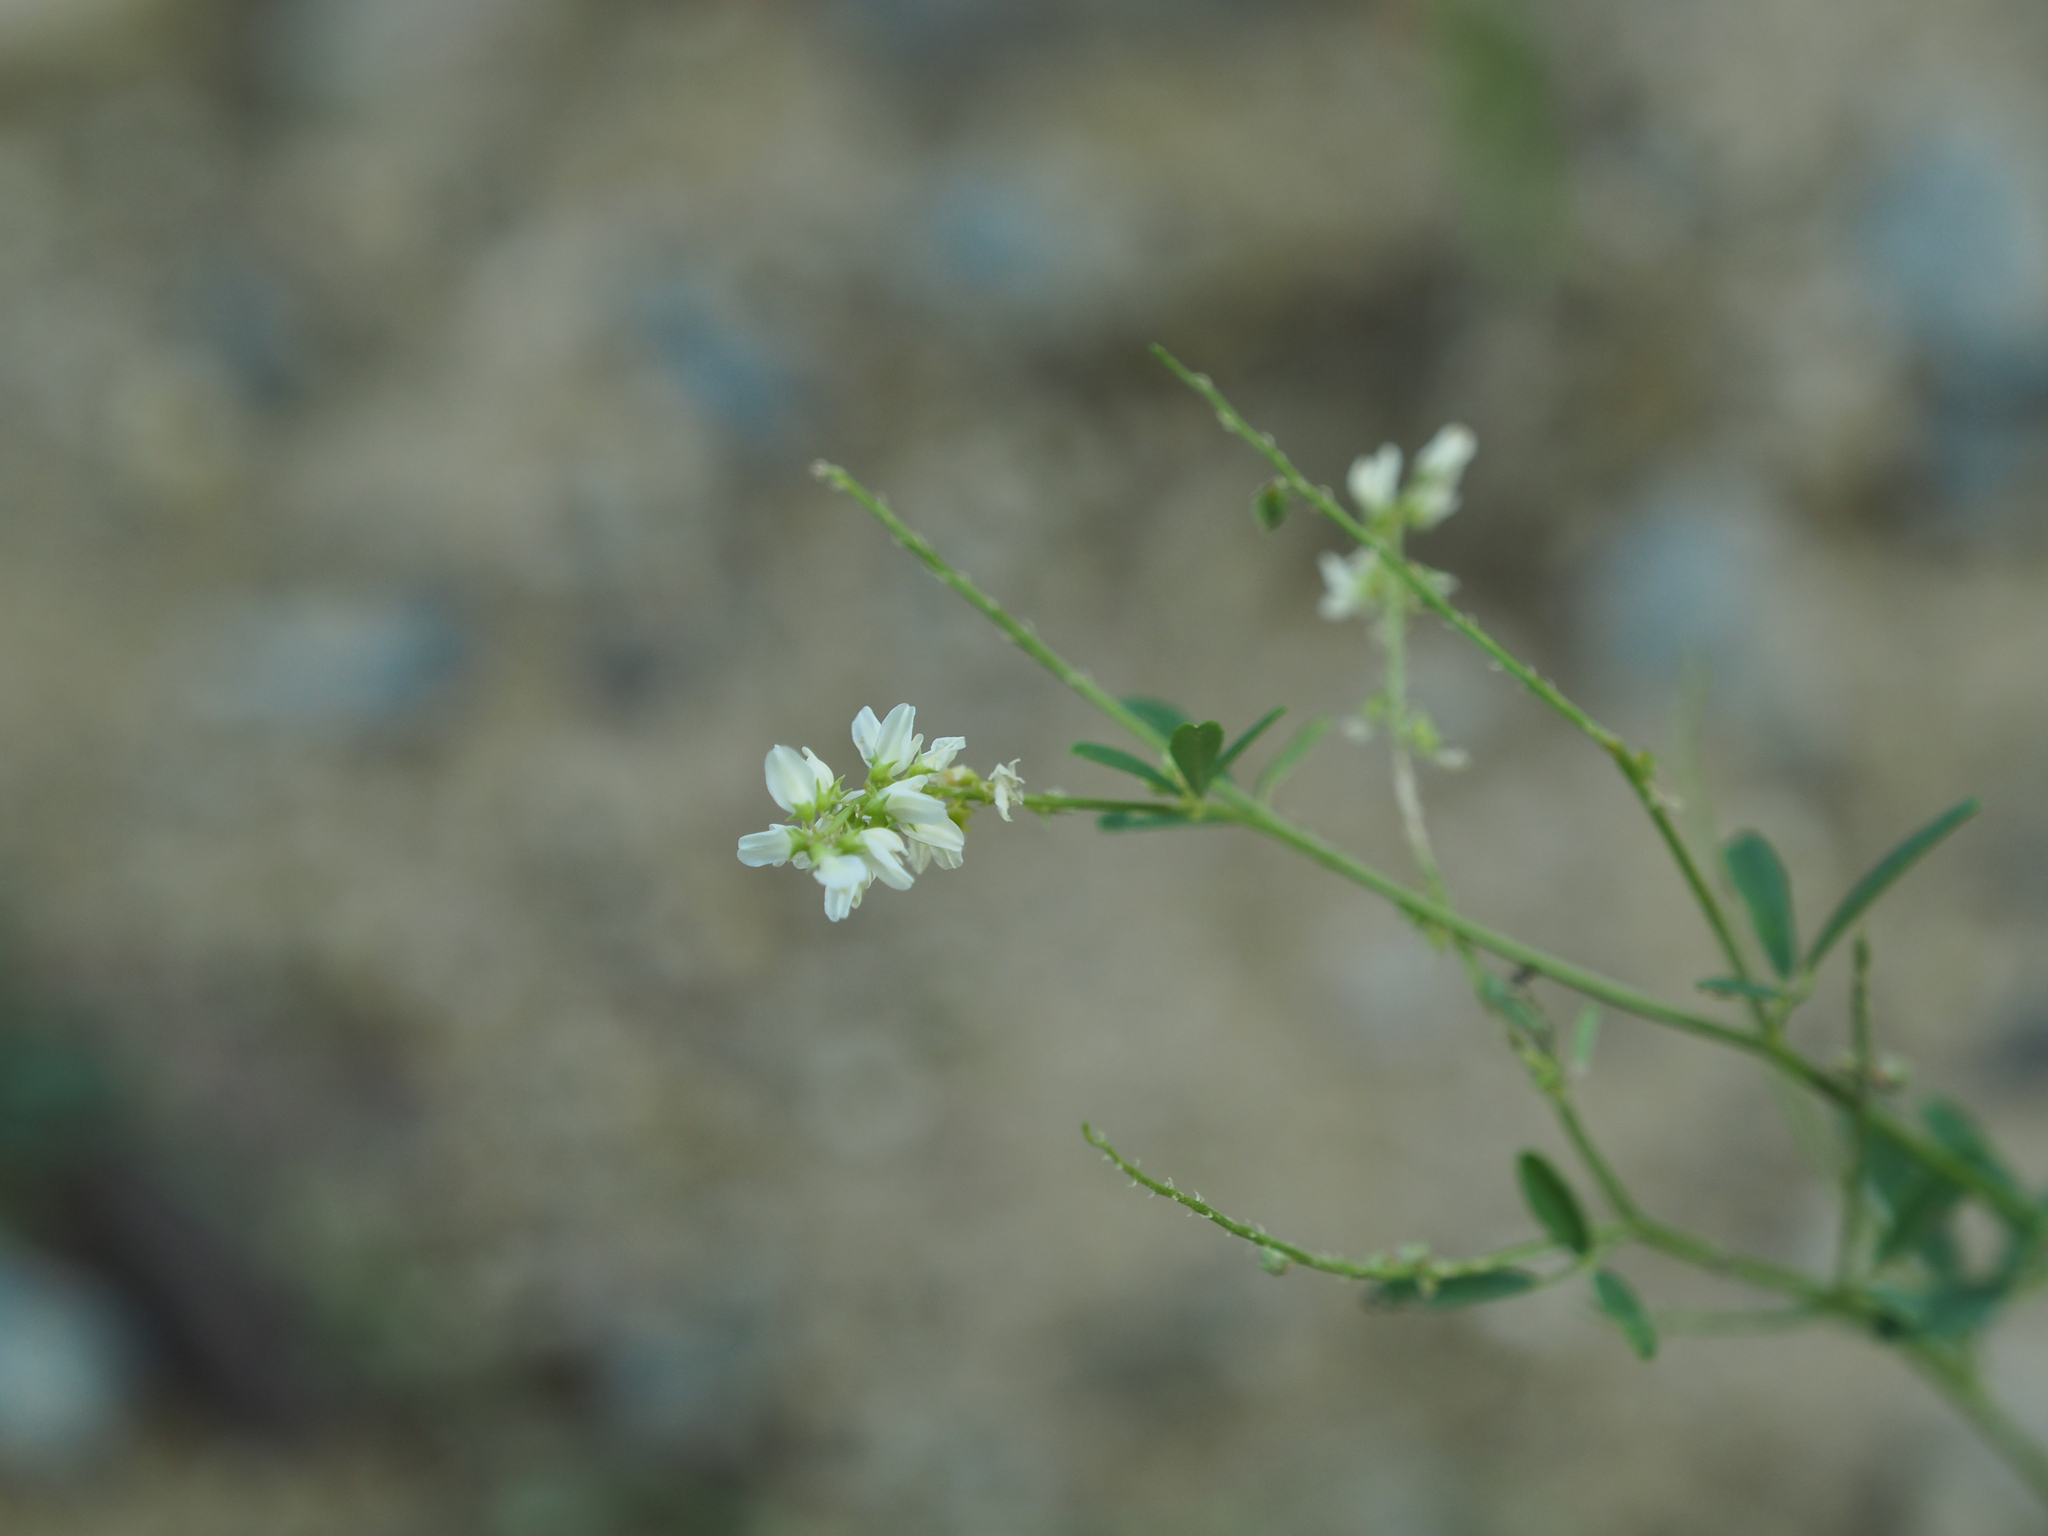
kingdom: Plantae
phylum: Tracheophyta
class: Magnoliopsida
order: Fabales
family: Fabaceae
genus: Melilotus
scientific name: Melilotus albus
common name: White melilot
